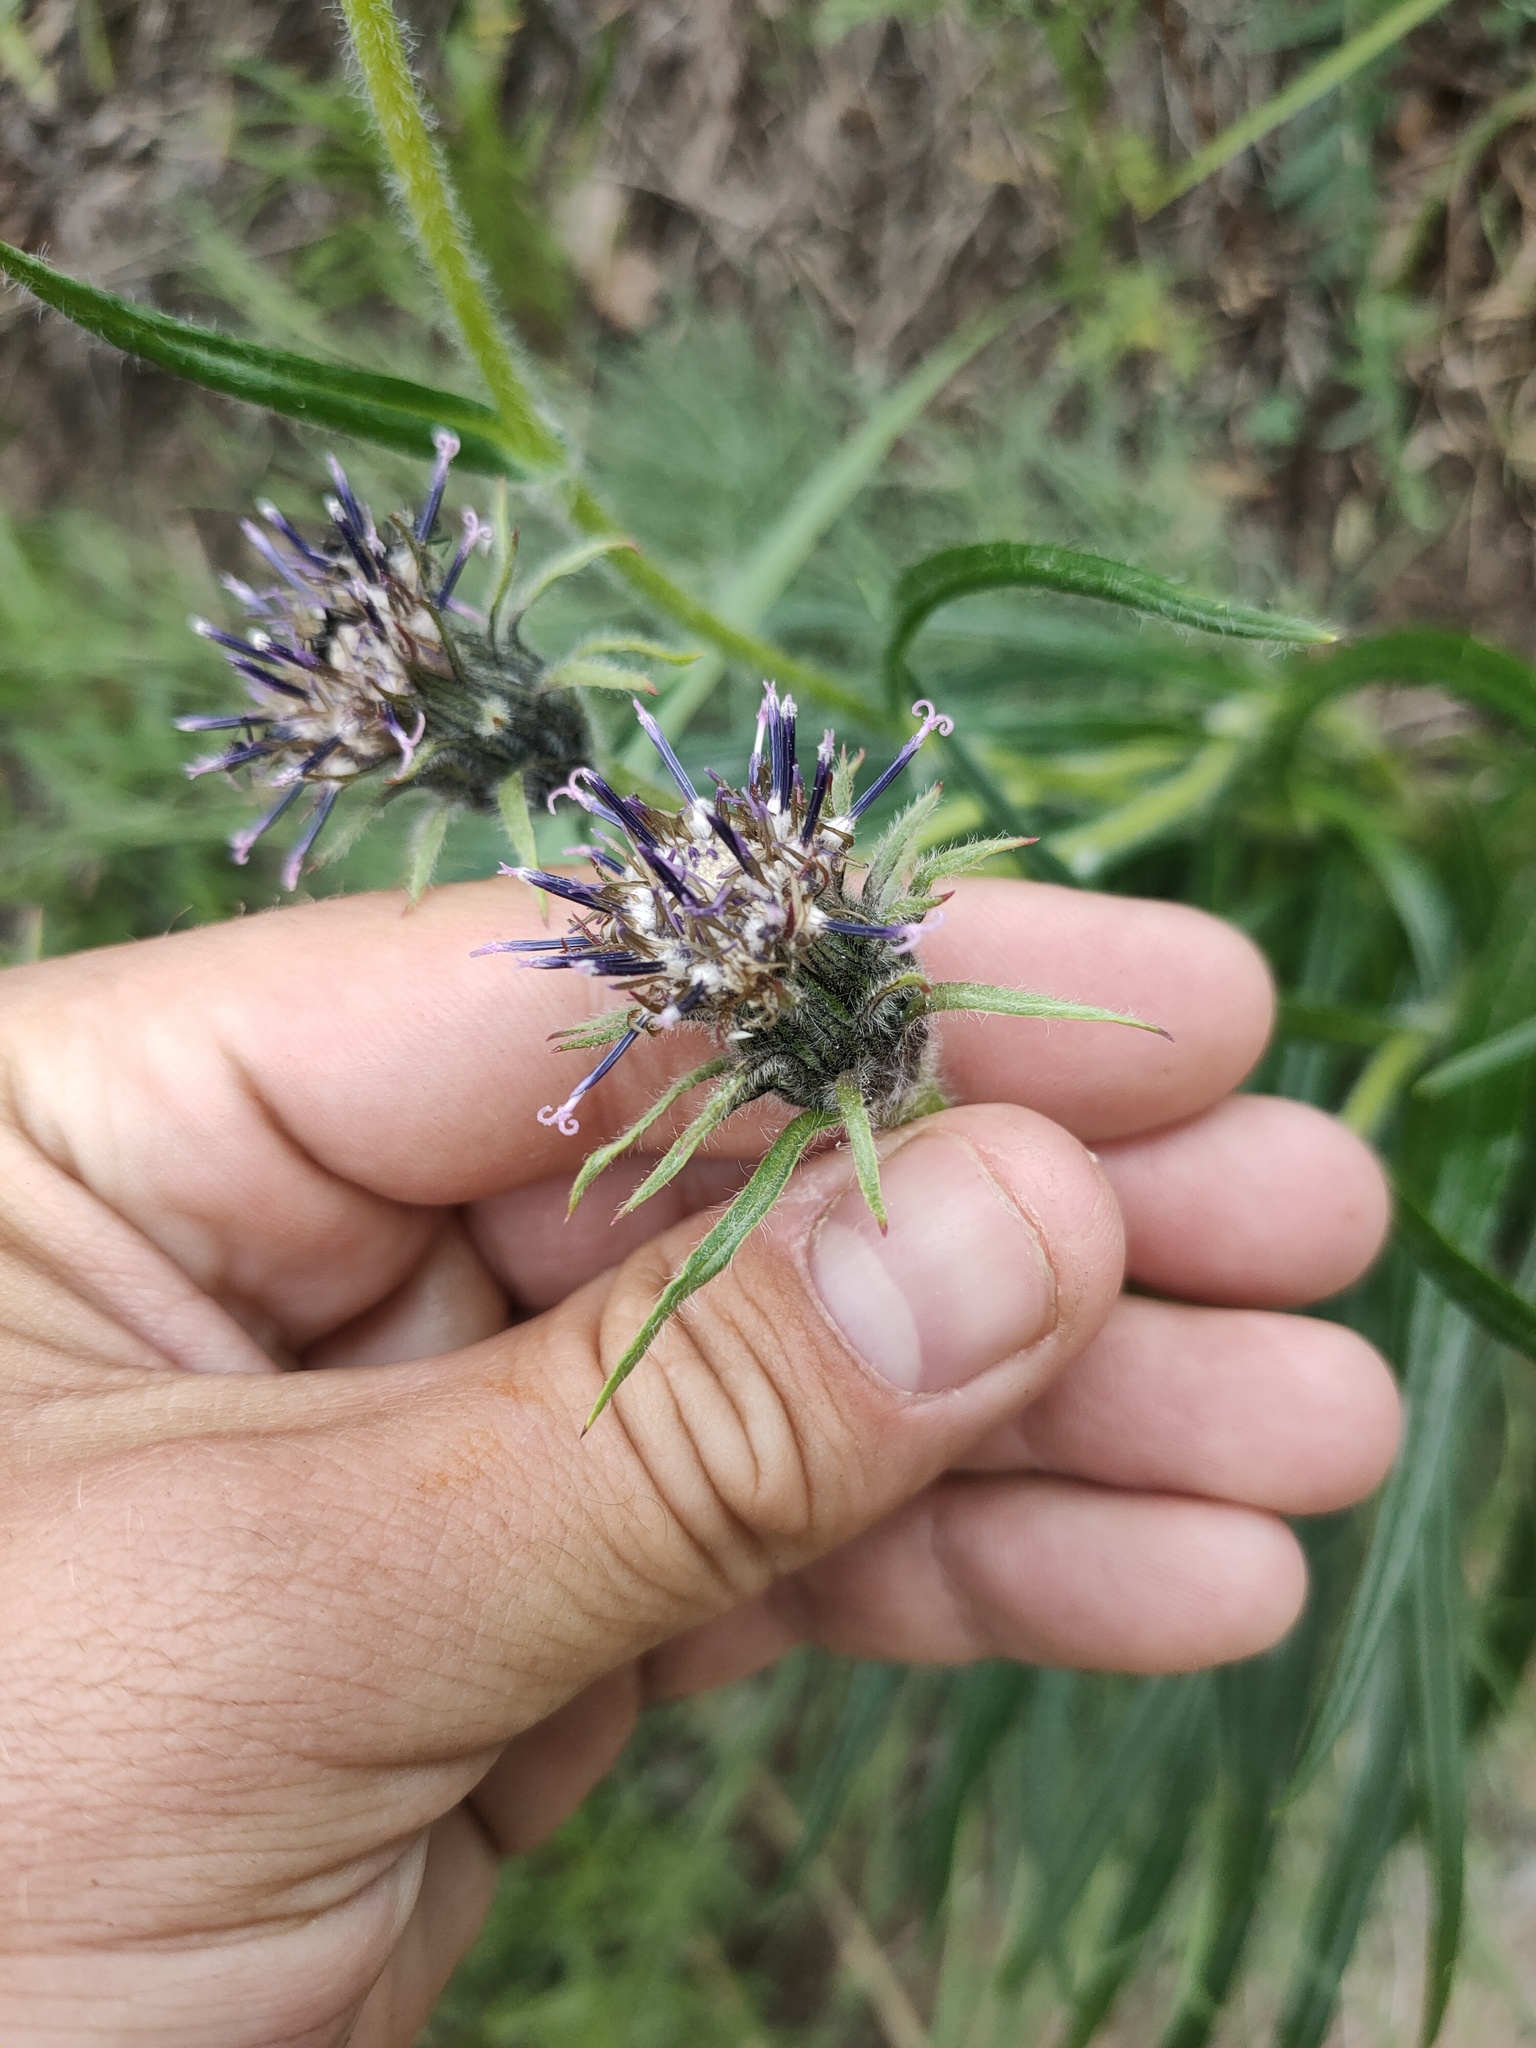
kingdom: Plantae
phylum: Tracheophyta
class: Magnoliopsida
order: Asterales
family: Asteraceae
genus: Saussurea
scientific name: Saussurea schanginiana
